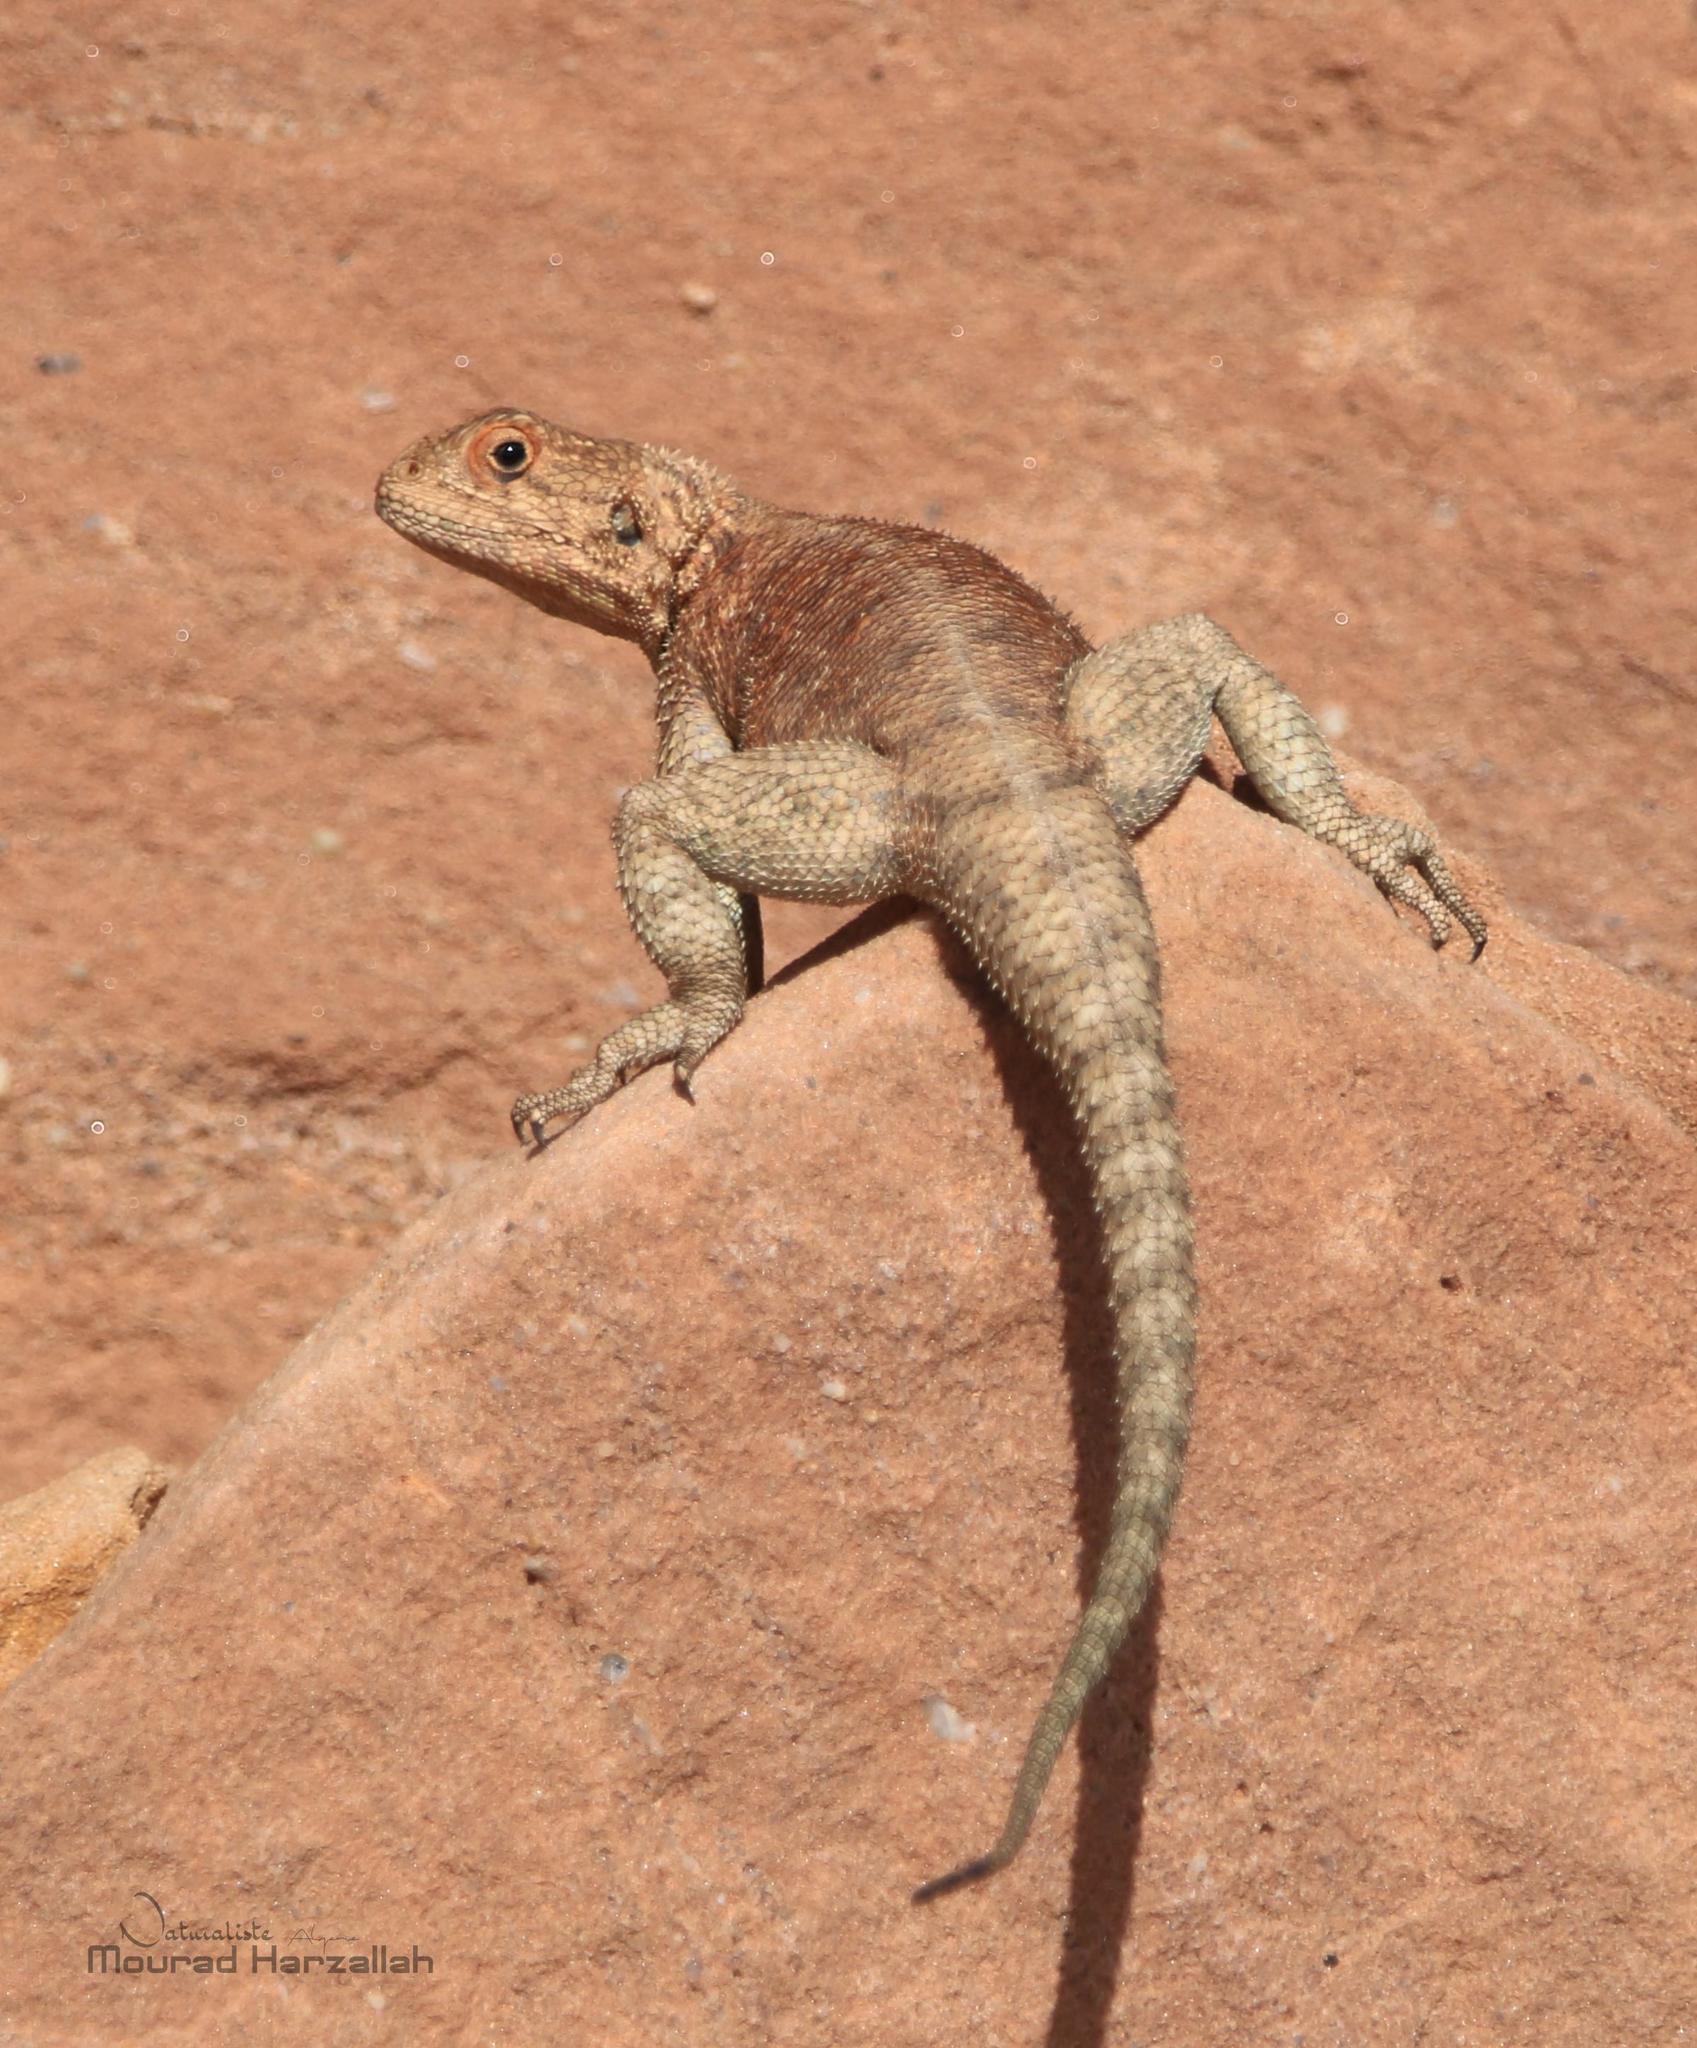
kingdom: Animalia
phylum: Chordata
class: Squamata
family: Agamidae
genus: Agama
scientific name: Agama impalearis
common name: Bibron's agama
